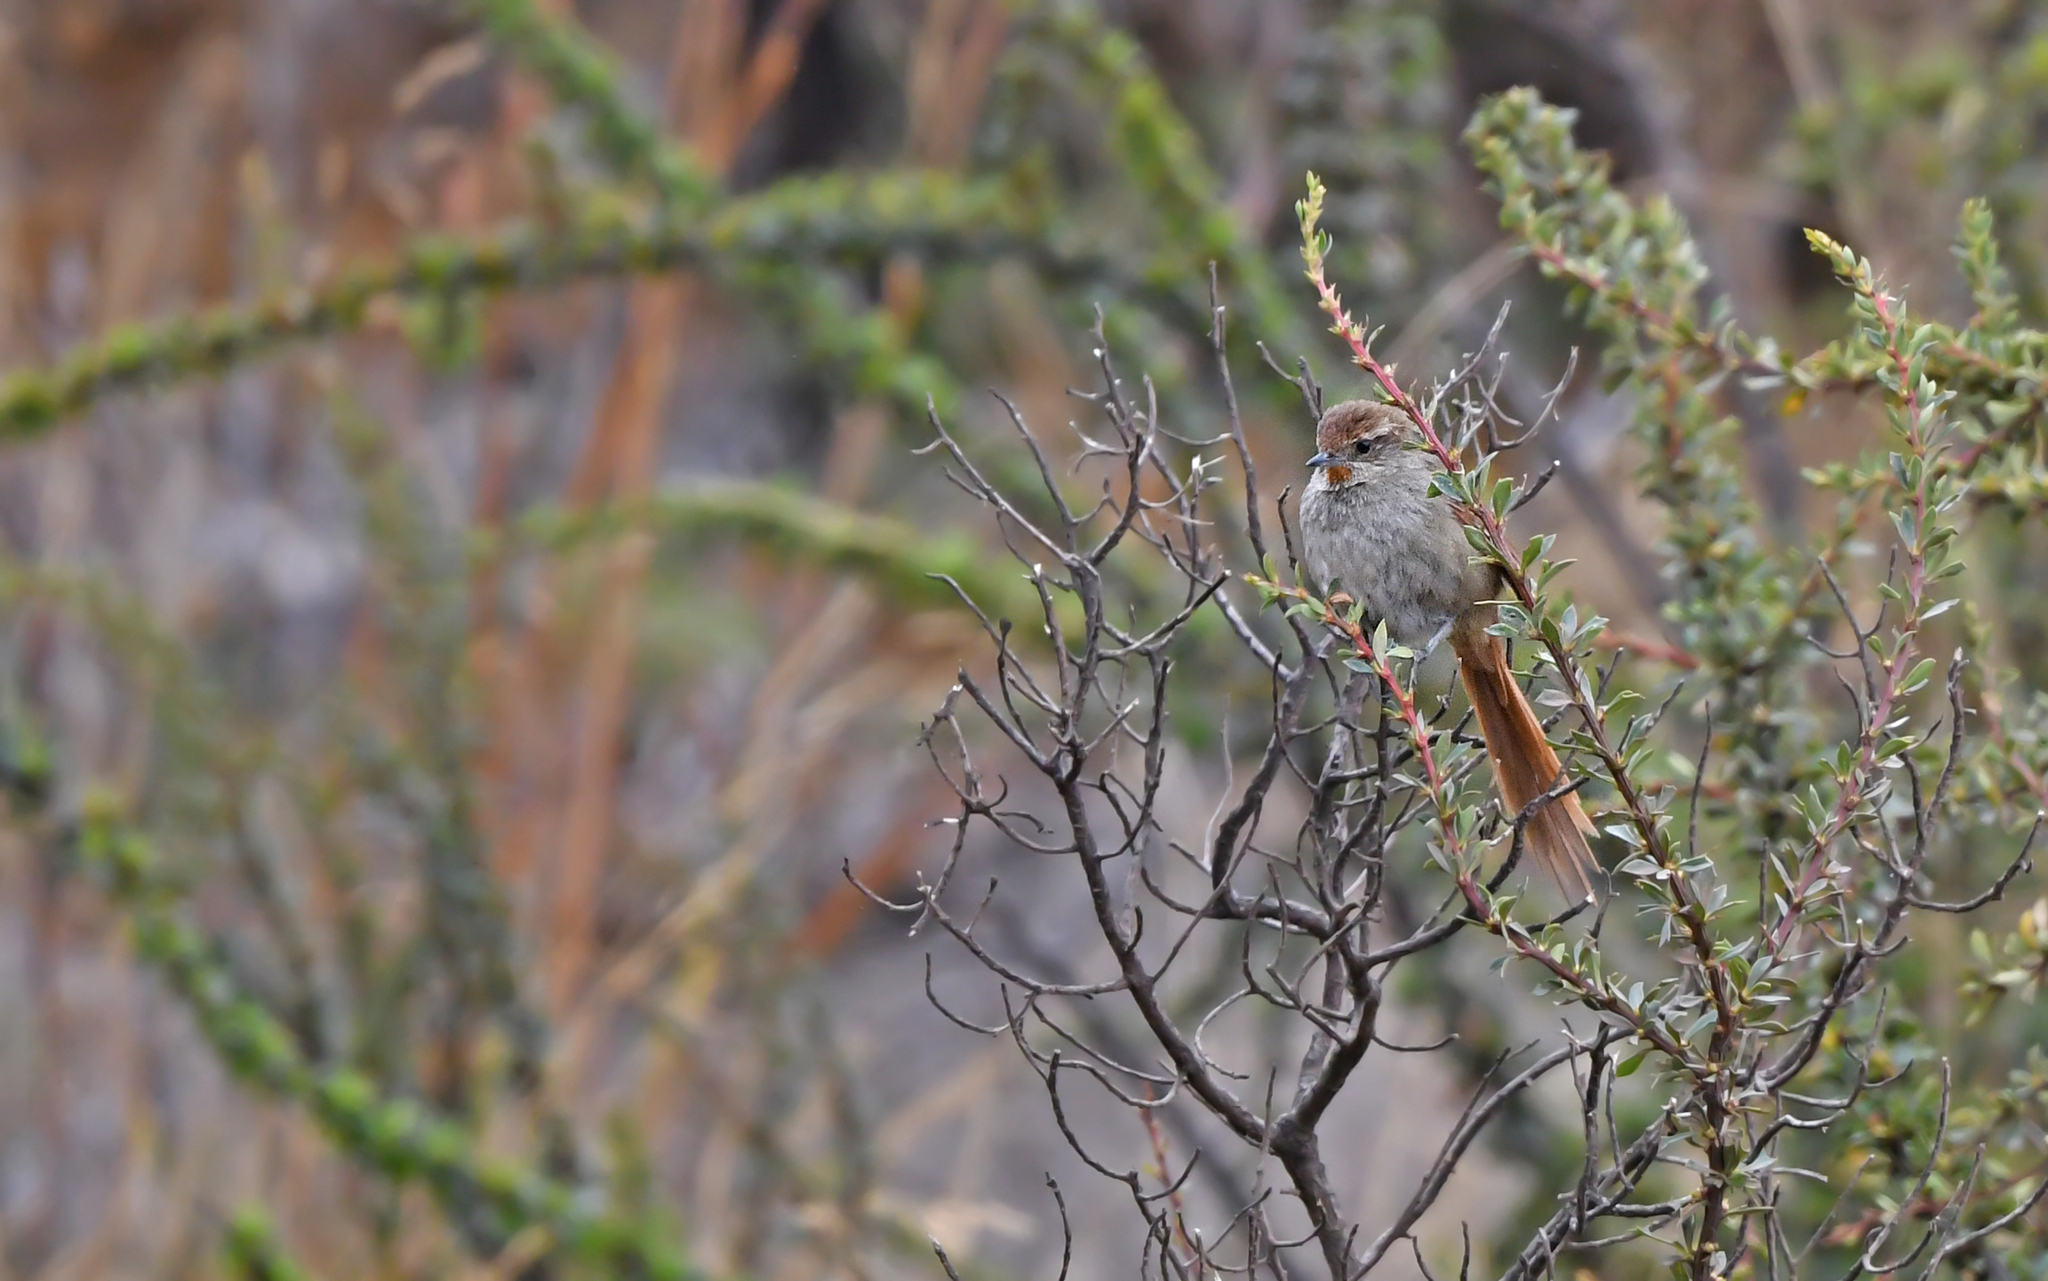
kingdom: Animalia
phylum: Chordata
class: Aves
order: Passeriformes
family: Furnariidae
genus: Asthenes
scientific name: Asthenes ottonis
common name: Rusty-fronted canastero
